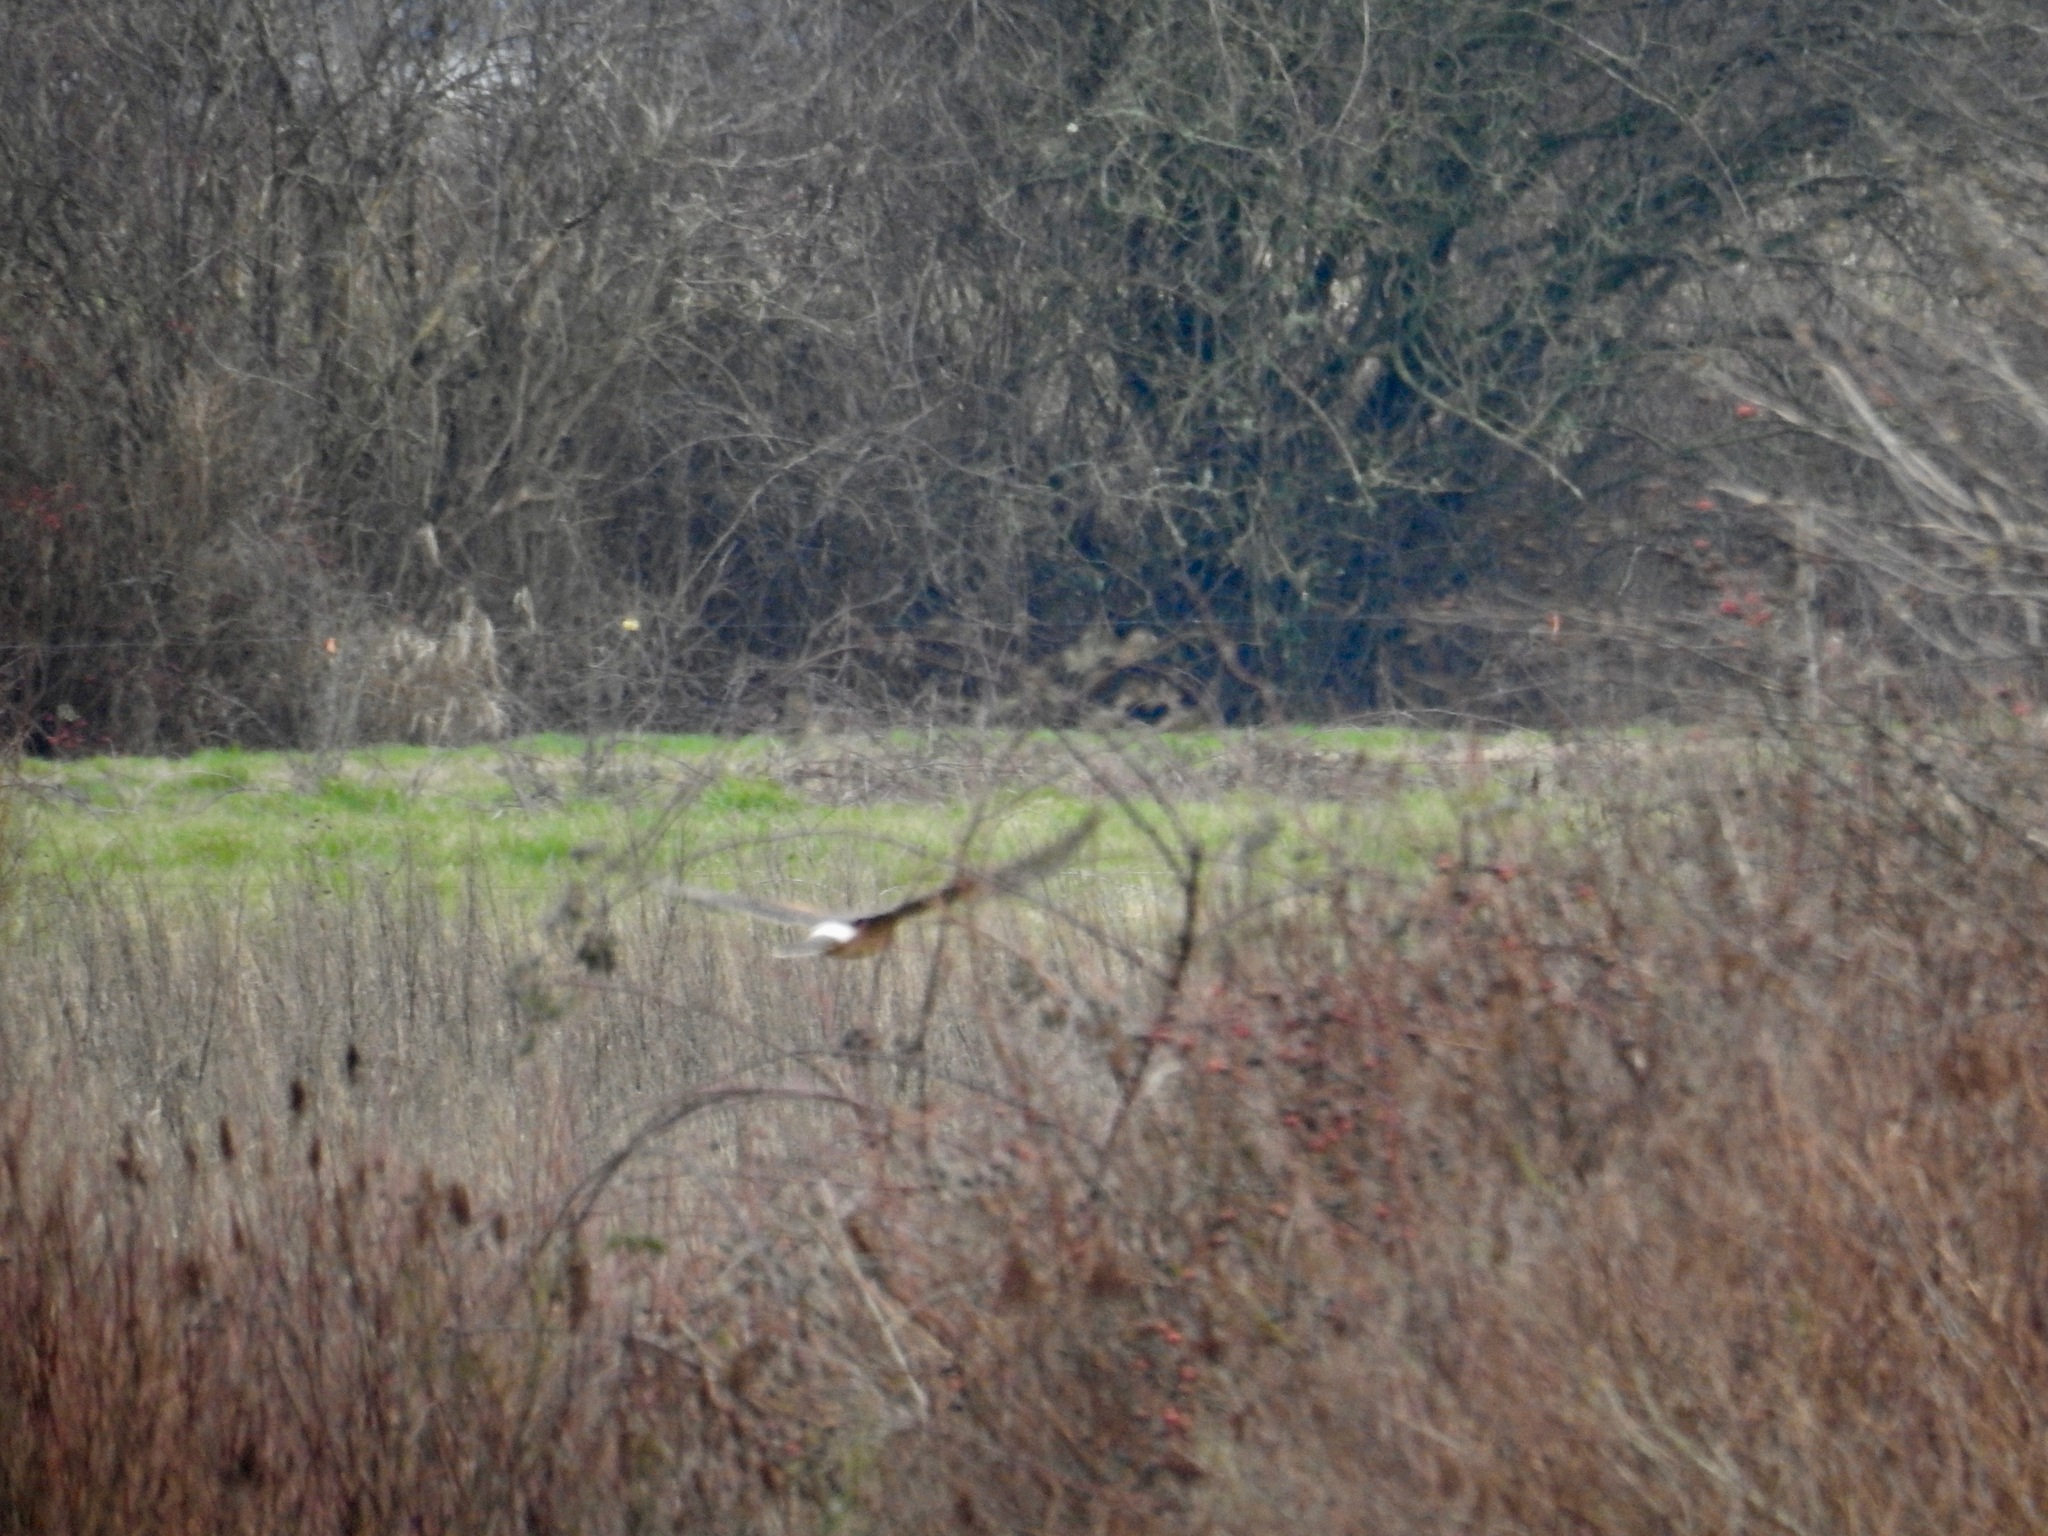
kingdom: Animalia
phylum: Chordata
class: Aves
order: Accipitriformes
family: Accipitridae
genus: Circus
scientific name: Circus cyaneus
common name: Hen harrier
